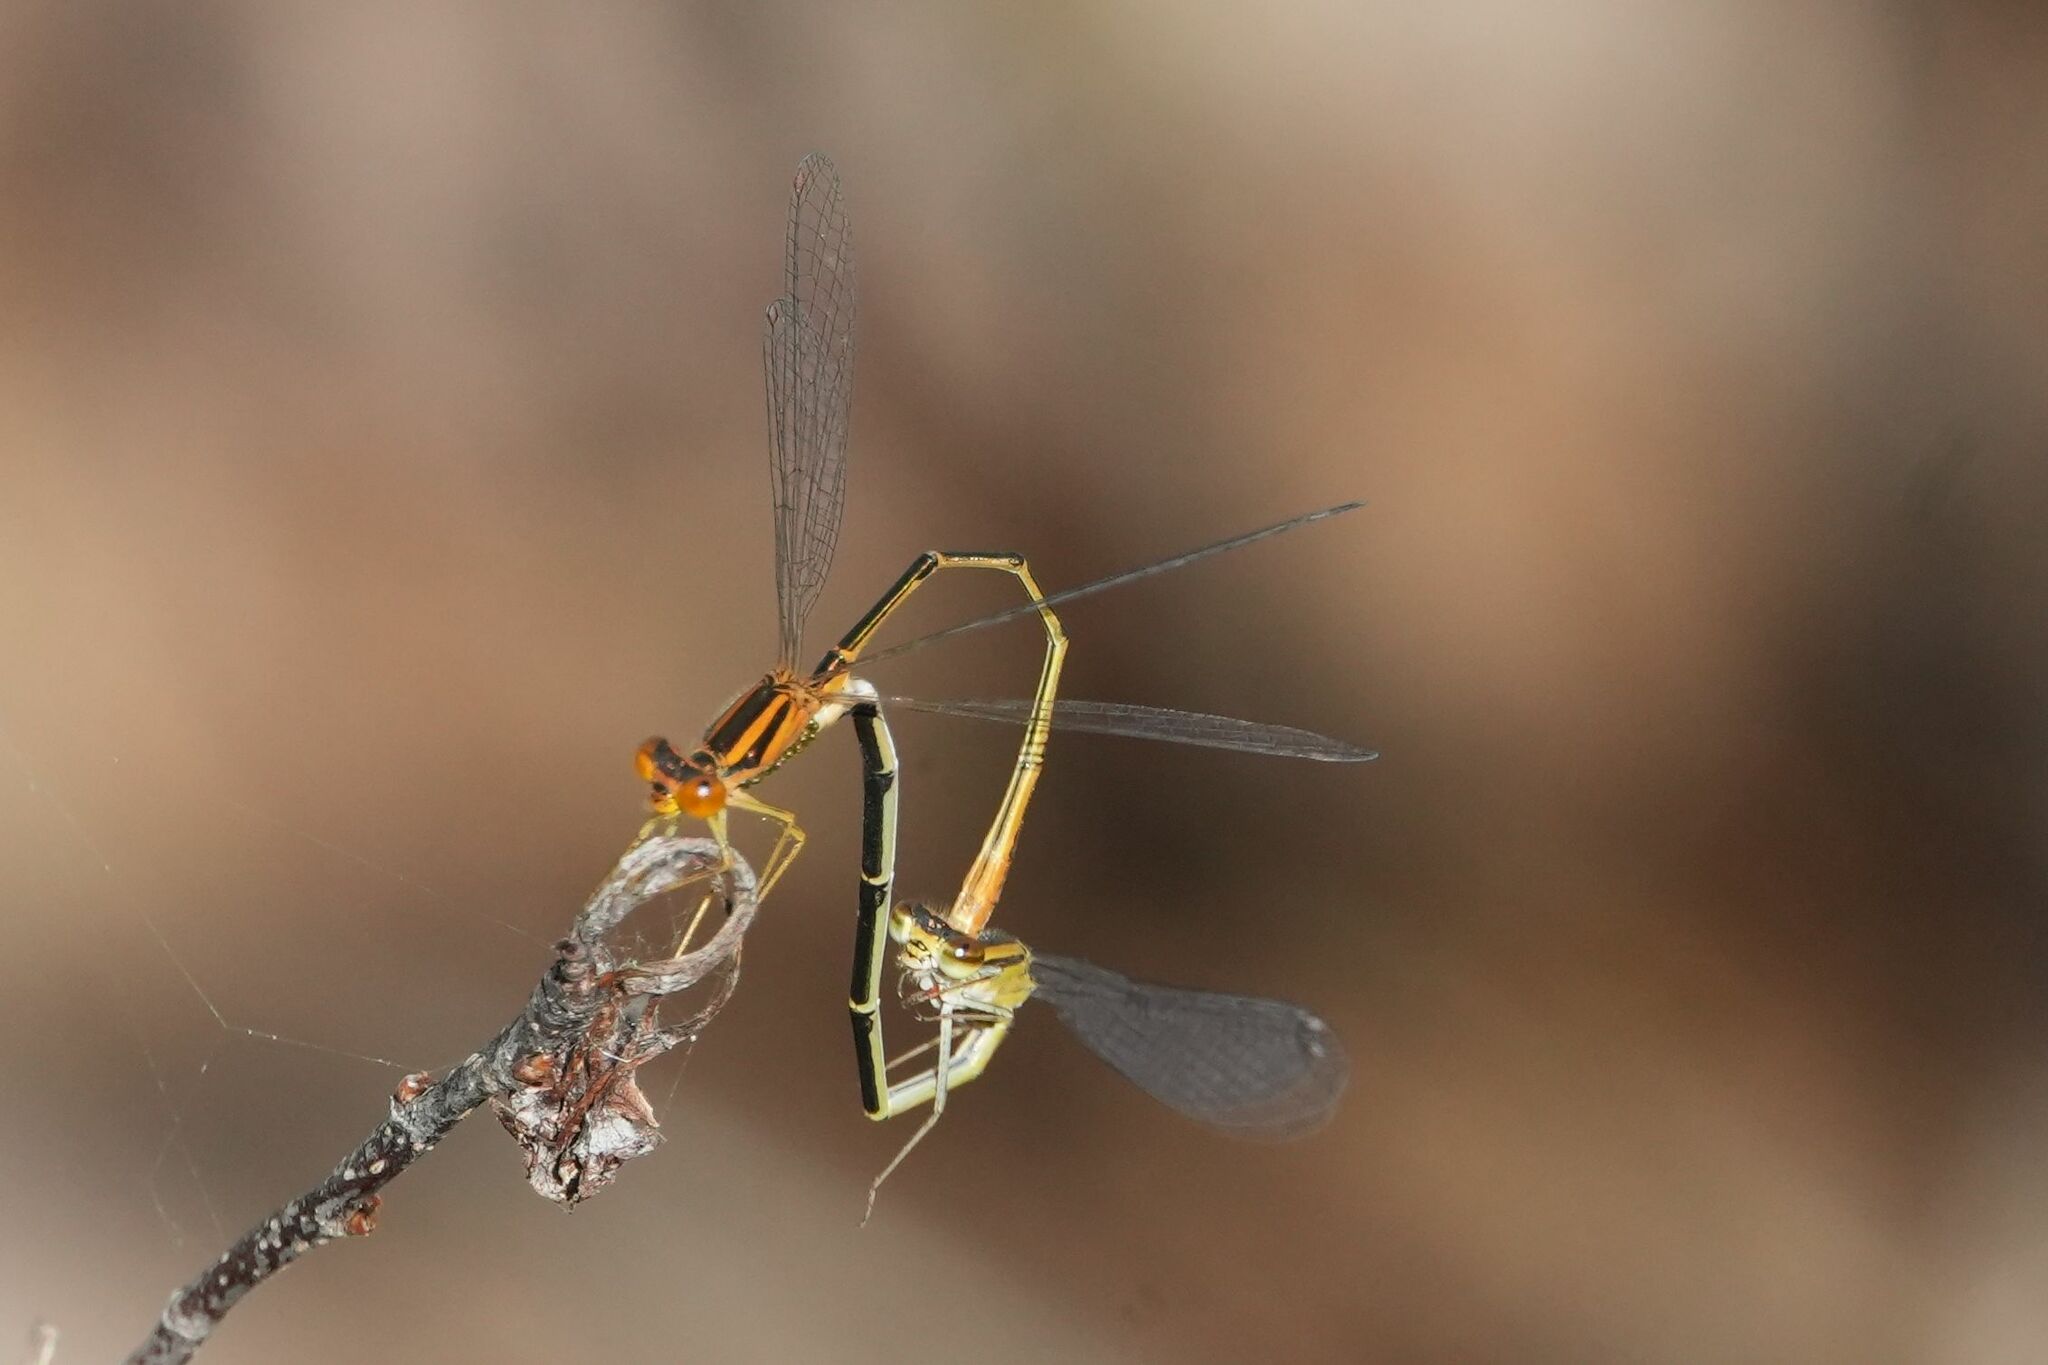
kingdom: Animalia
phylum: Arthropoda
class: Insecta
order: Odonata
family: Coenagrionidae
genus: Enallagma
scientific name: Enallagma signatum
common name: Orange bluet
